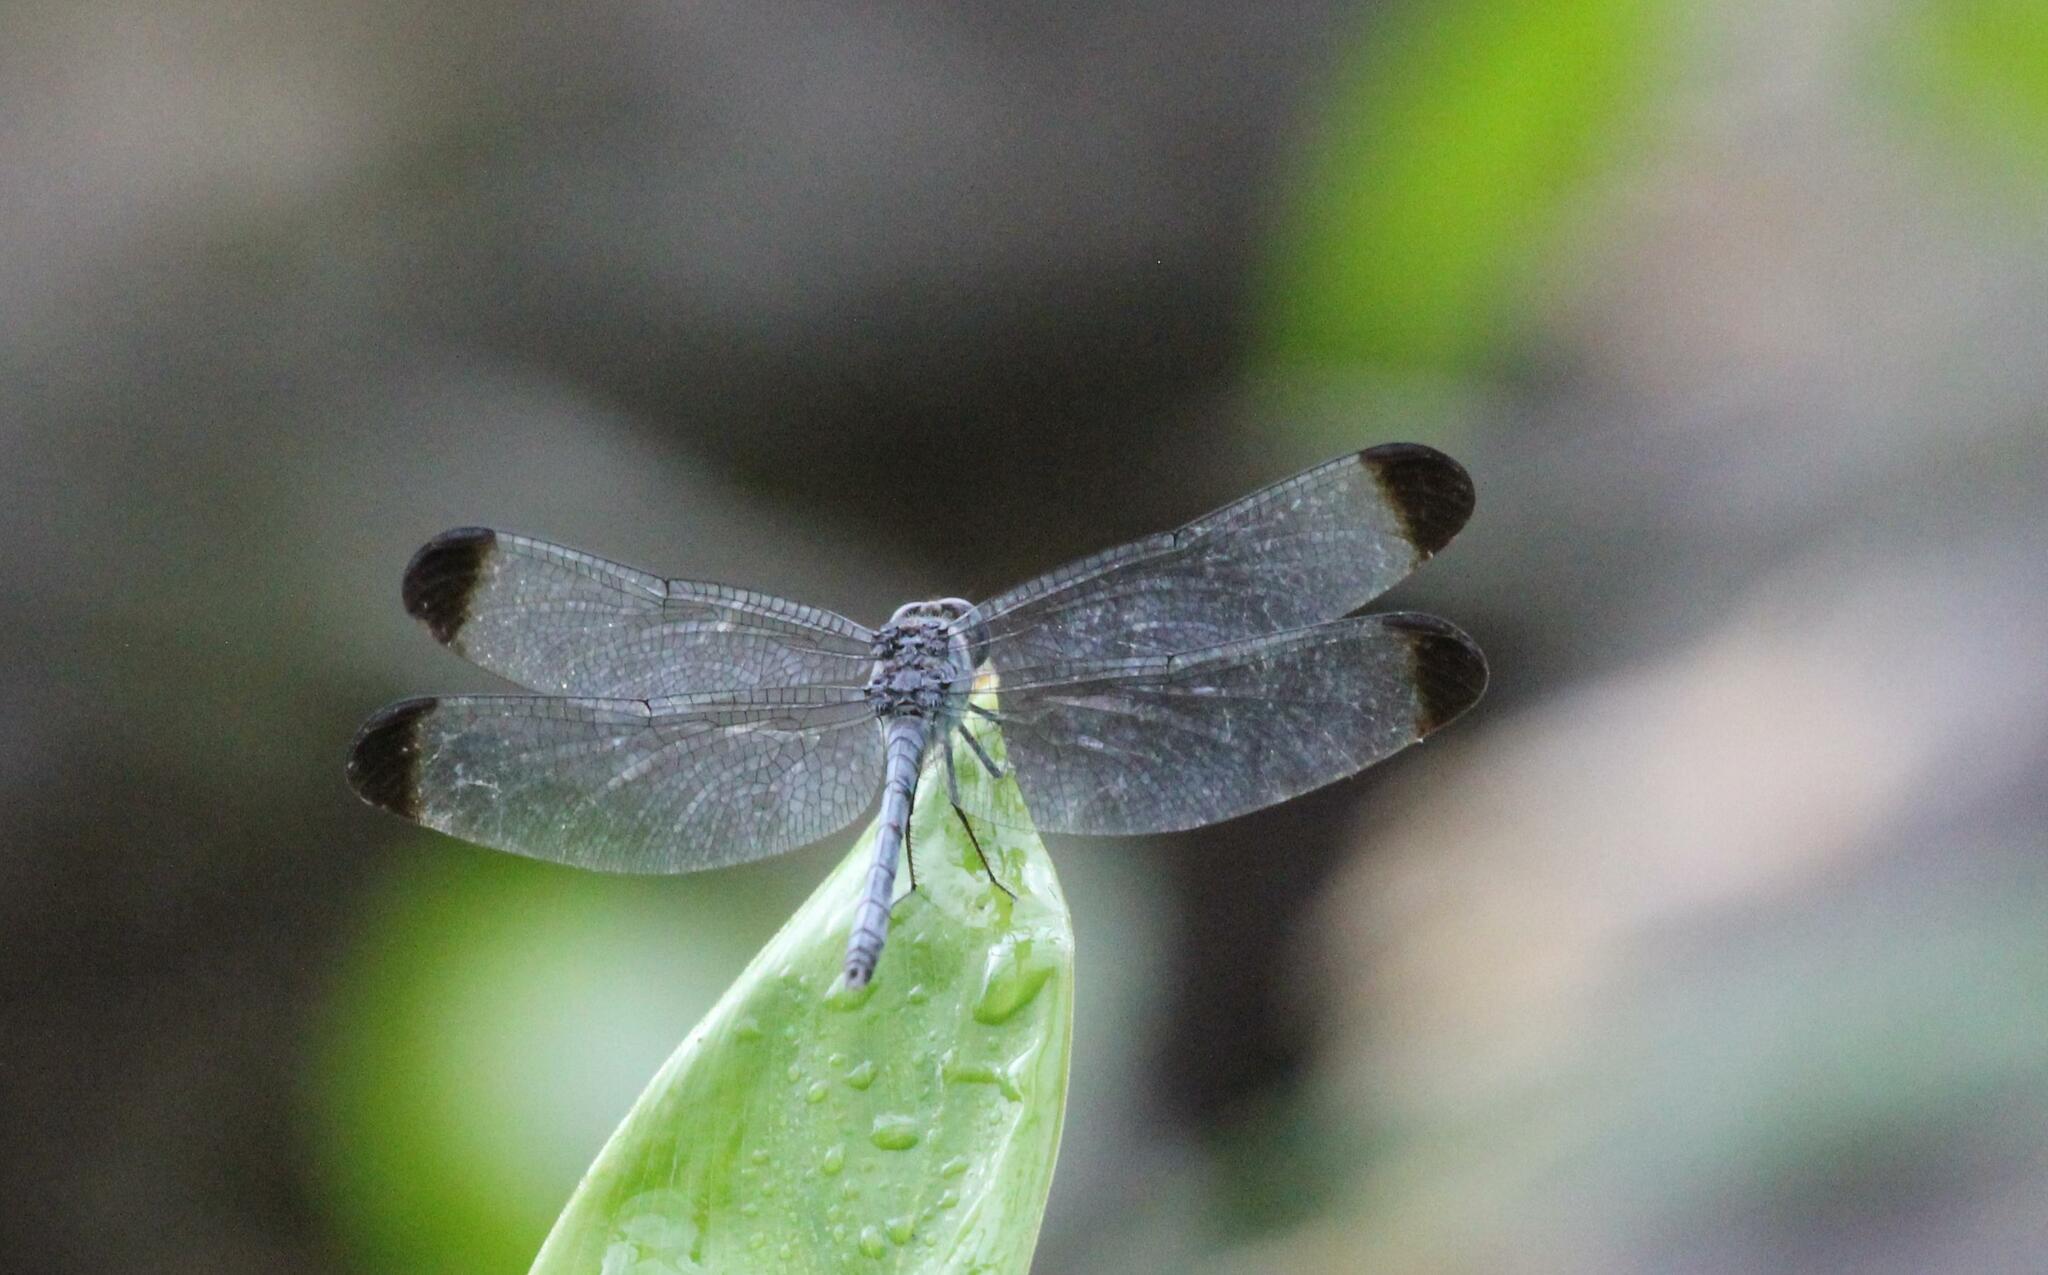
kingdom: Animalia
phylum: Arthropoda
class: Insecta
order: Odonata
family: Libellulidae
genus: Uracis
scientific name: Uracis imbuta
